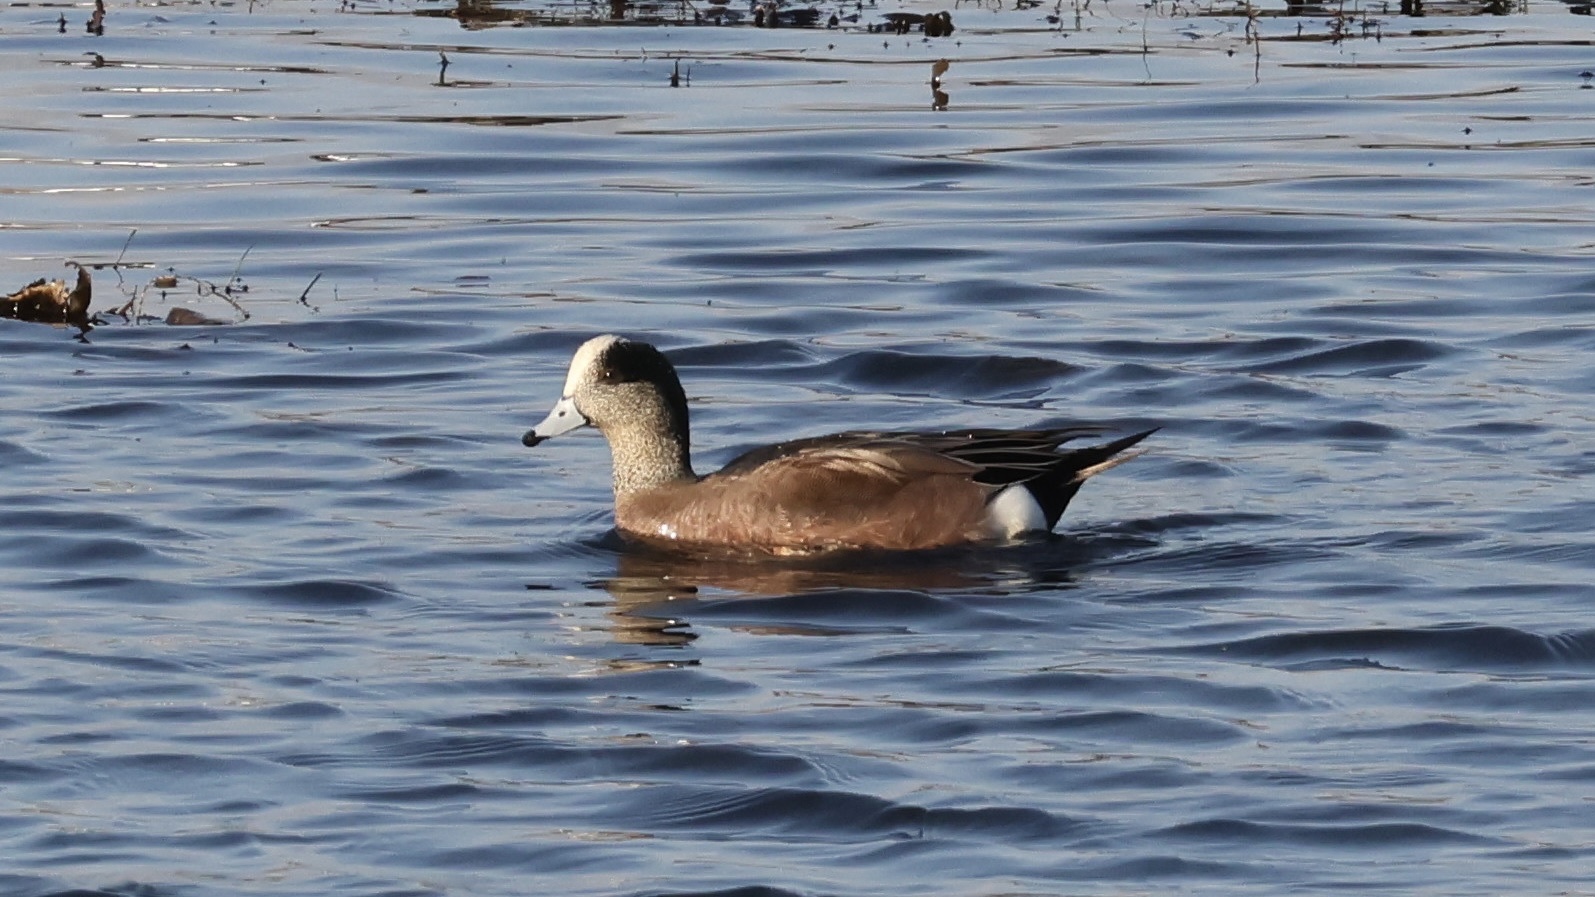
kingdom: Animalia
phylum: Chordata
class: Aves
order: Anseriformes
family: Anatidae
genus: Mareca
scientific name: Mareca americana
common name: American wigeon
